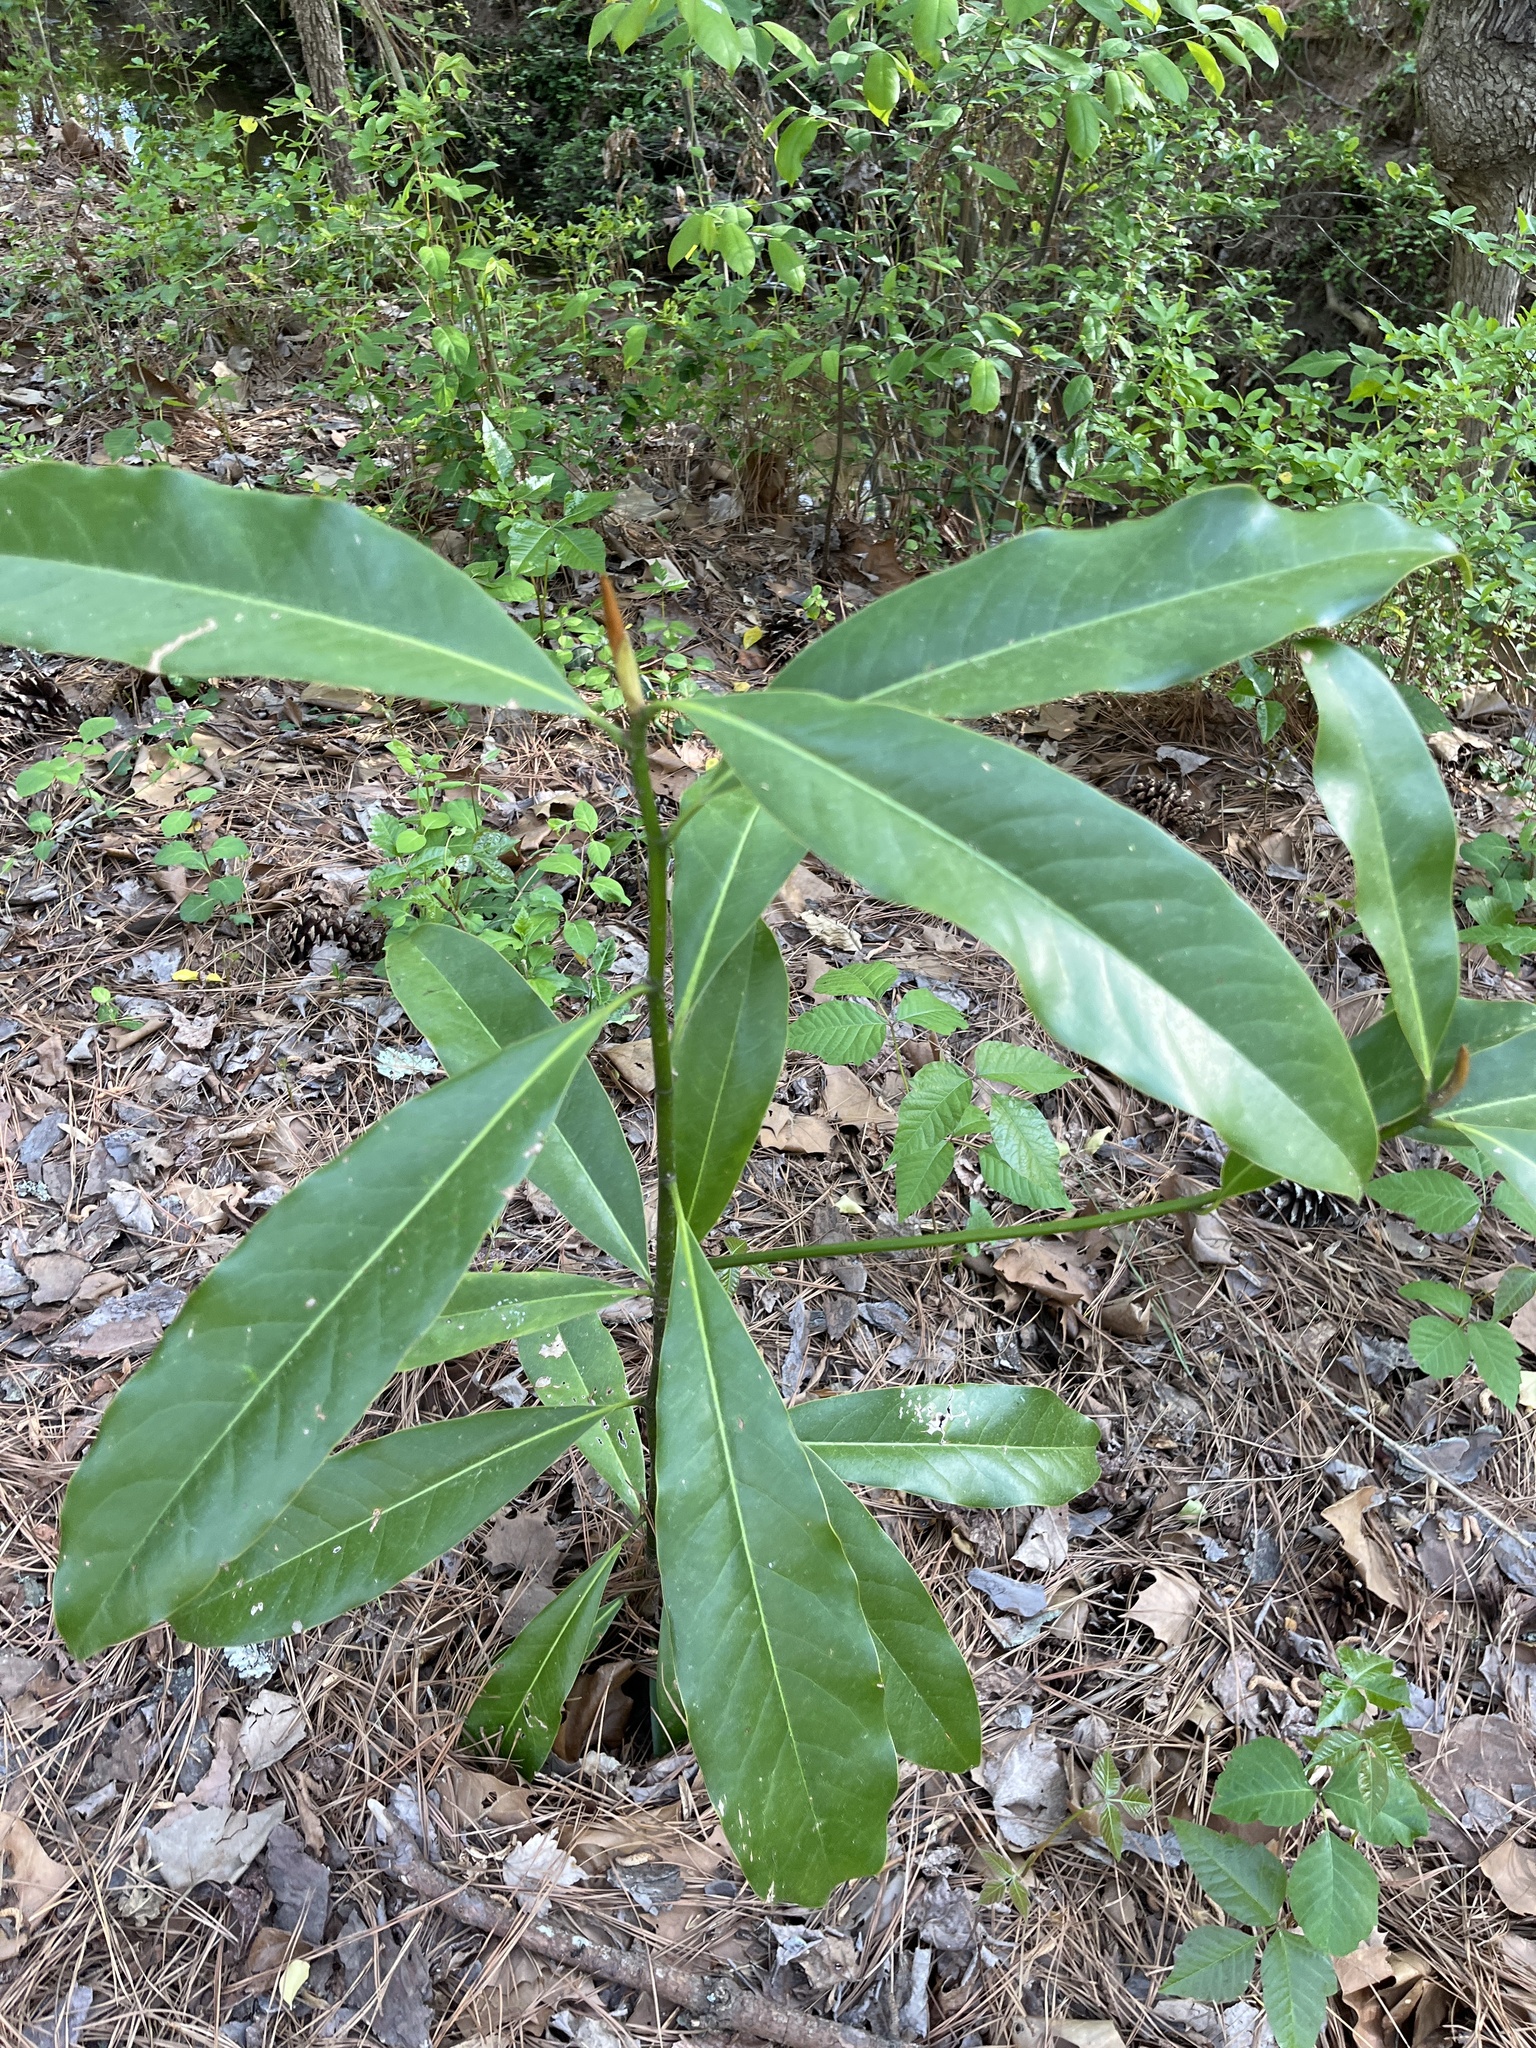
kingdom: Plantae
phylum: Tracheophyta
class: Magnoliopsida
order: Magnoliales
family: Magnoliaceae
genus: Magnolia
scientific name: Magnolia grandiflora
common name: Southern magnolia
